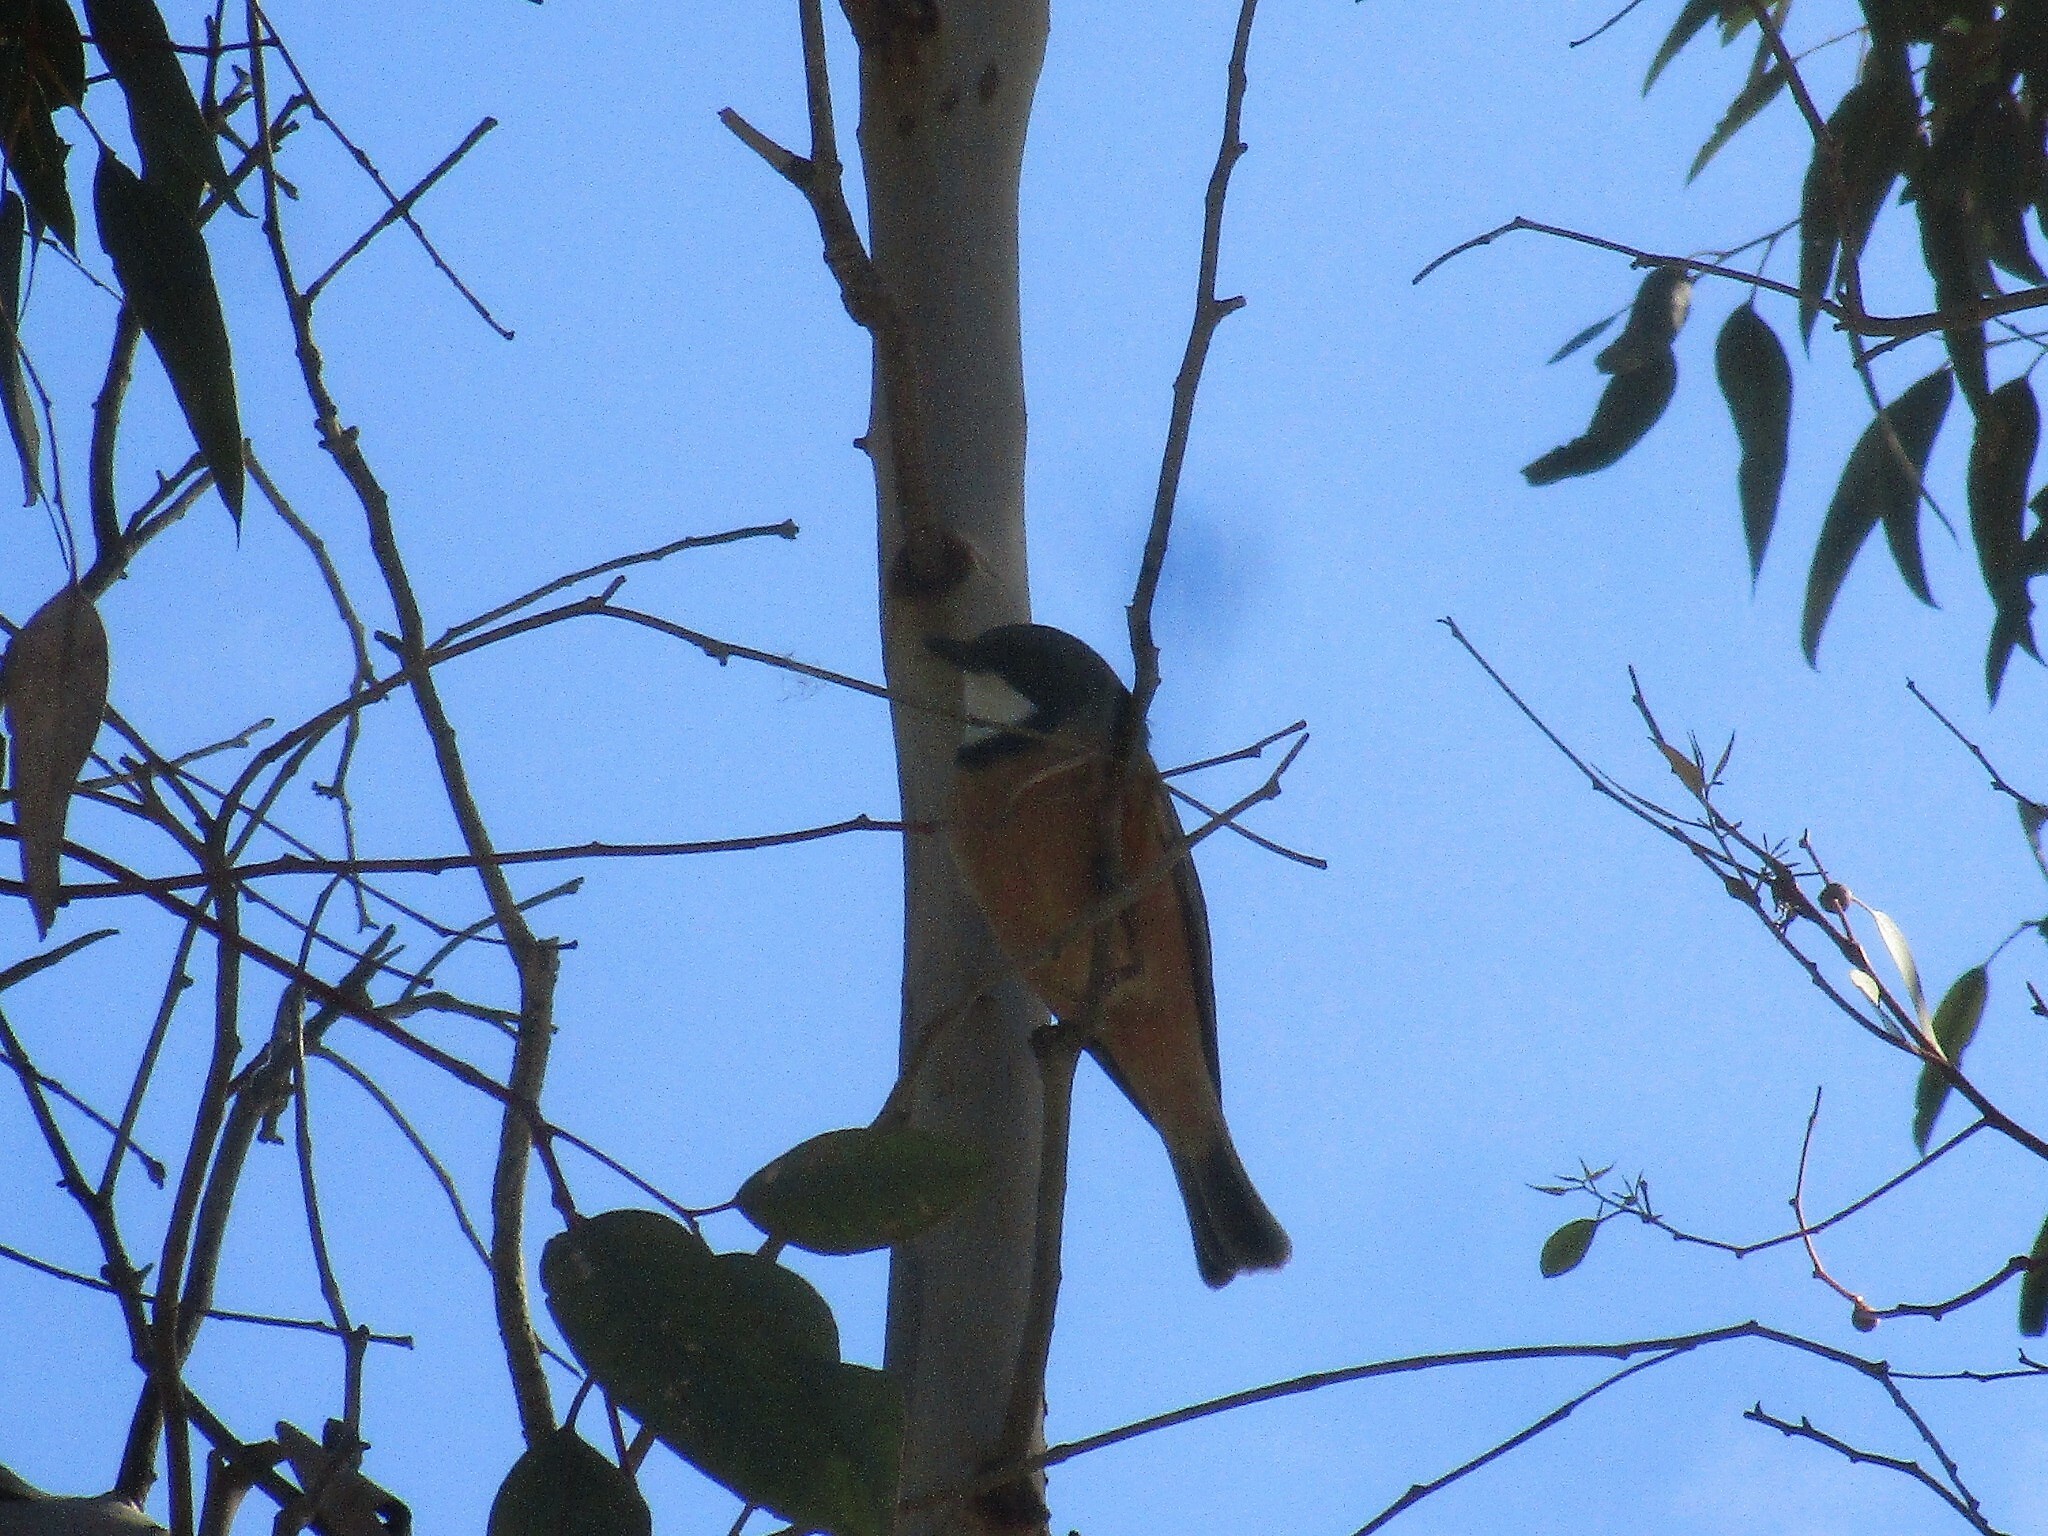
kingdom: Animalia
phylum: Chordata
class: Aves
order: Passeriformes
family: Pachycephalidae
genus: Pachycephala
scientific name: Pachycephala rufiventris
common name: Rufous whistler
